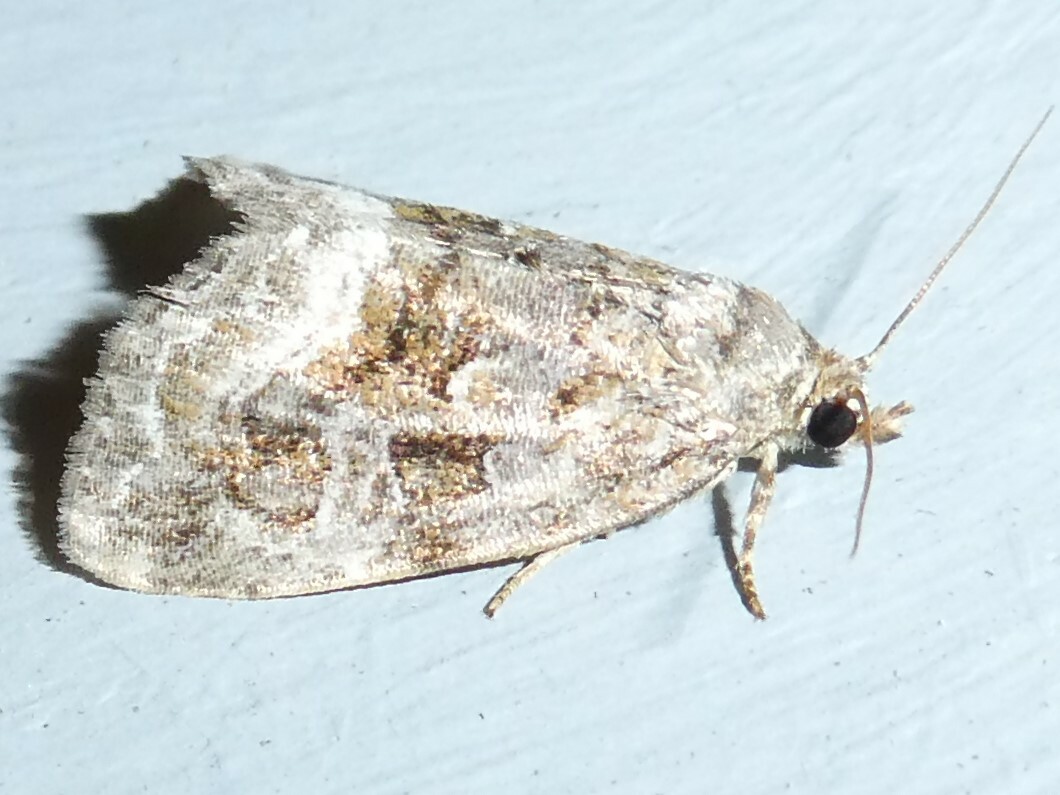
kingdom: Animalia
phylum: Arthropoda
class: Insecta
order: Lepidoptera
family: Noctuidae
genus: Protodeltote
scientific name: Protodeltote muscosula
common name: Large mossy glyph
